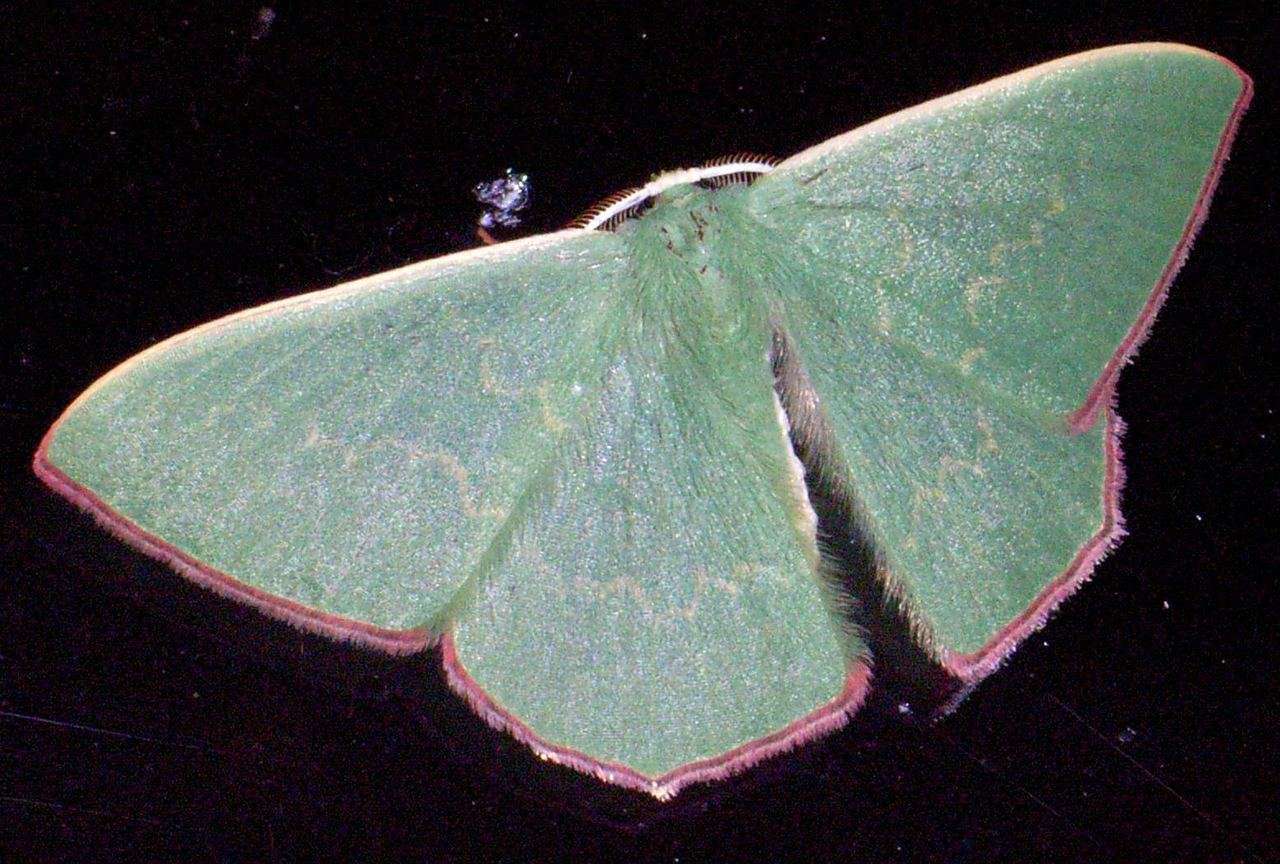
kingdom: Animalia
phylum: Arthropoda
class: Insecta
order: Lepidoptera
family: Geometridae
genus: Prasinocyma
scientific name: Prasinocyma semicrocea
